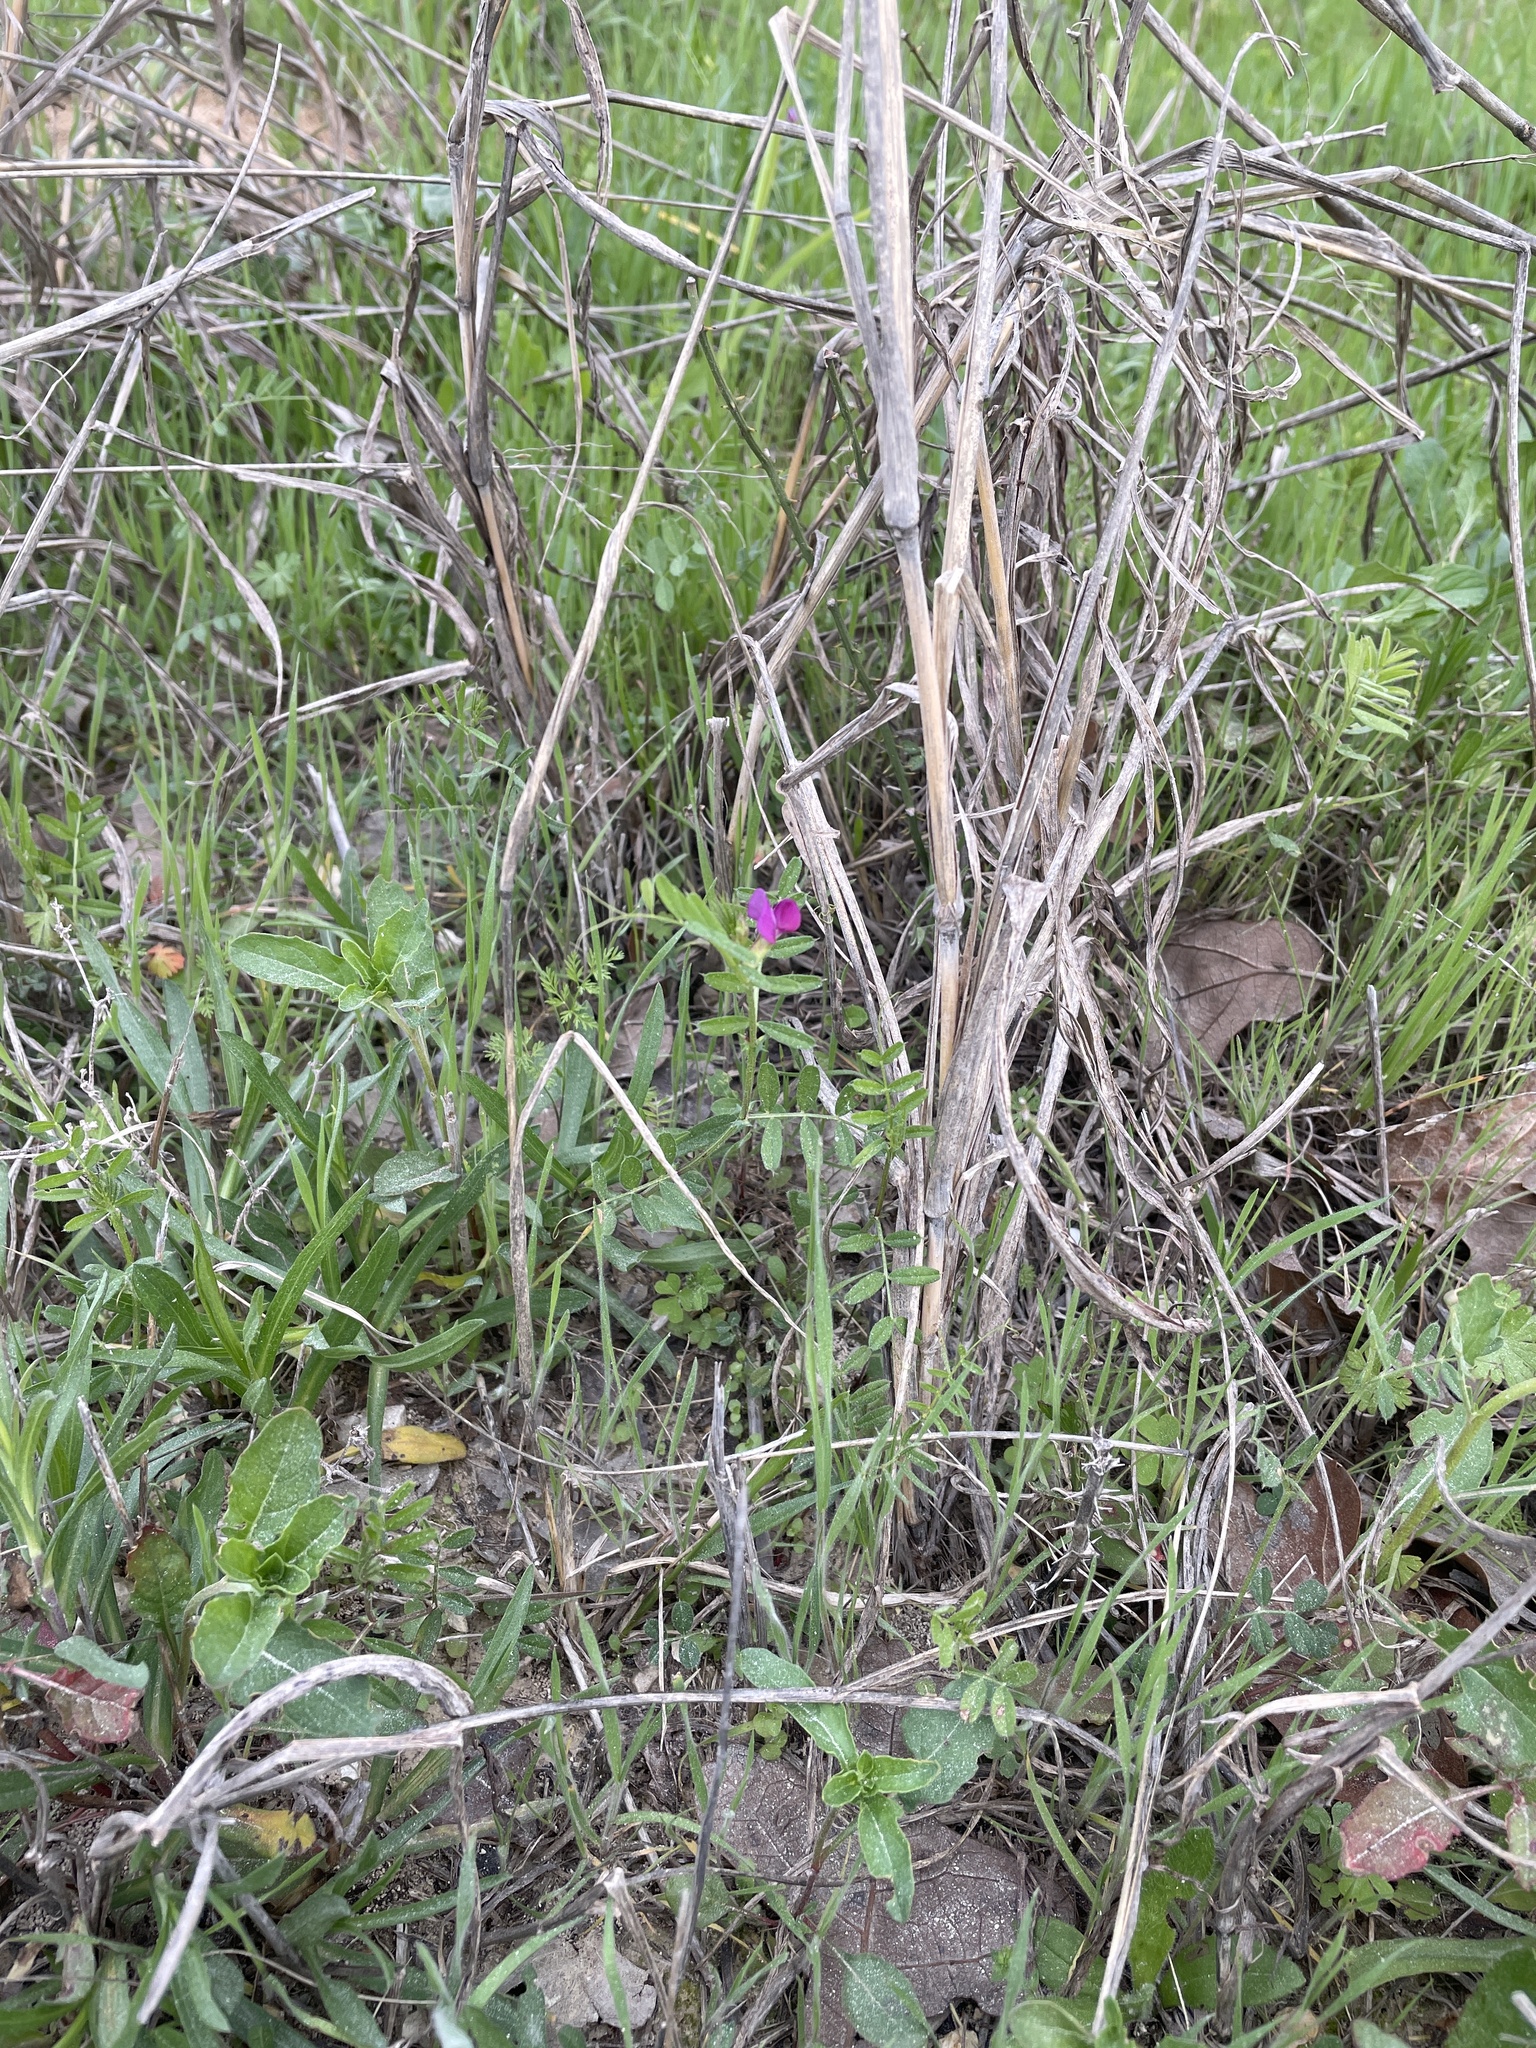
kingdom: Plantae
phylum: Tracheophyta
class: Magnoliopsida
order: Fabales
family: Fabaceae
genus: Vicia
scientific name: Vicia sativa
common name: Garden vetch
